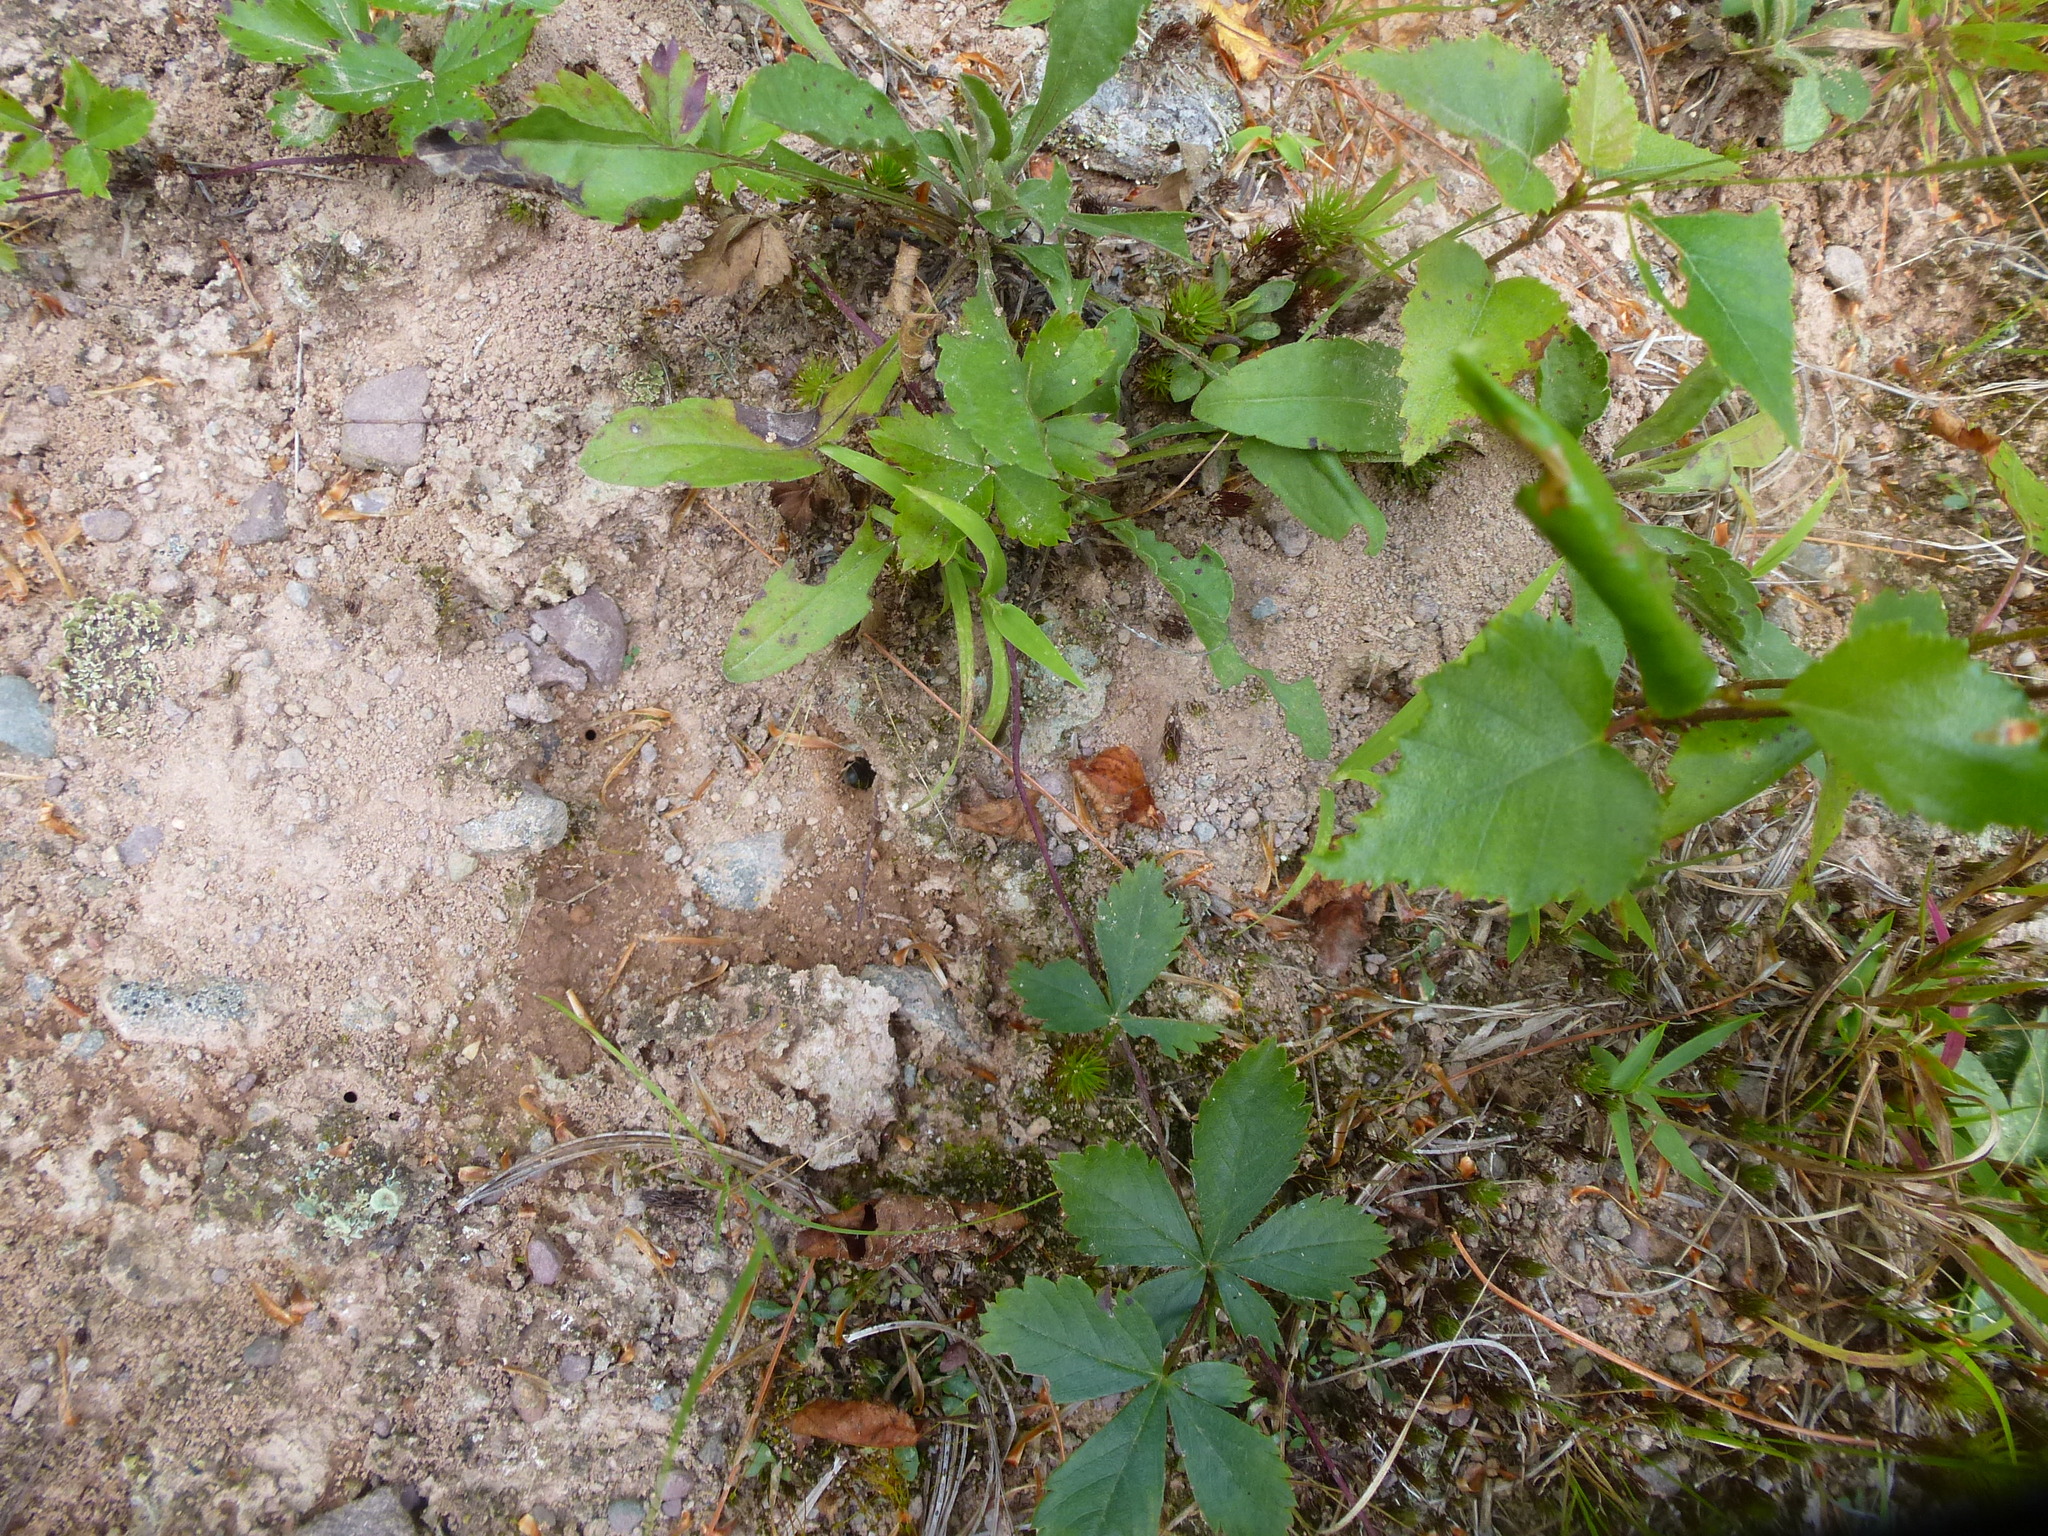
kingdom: Animalia
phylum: Arthropoda
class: Insecta
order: Hymenoptera
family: Andrenidae
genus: Andrena
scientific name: Andrena asteris
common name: Aster mining bee
